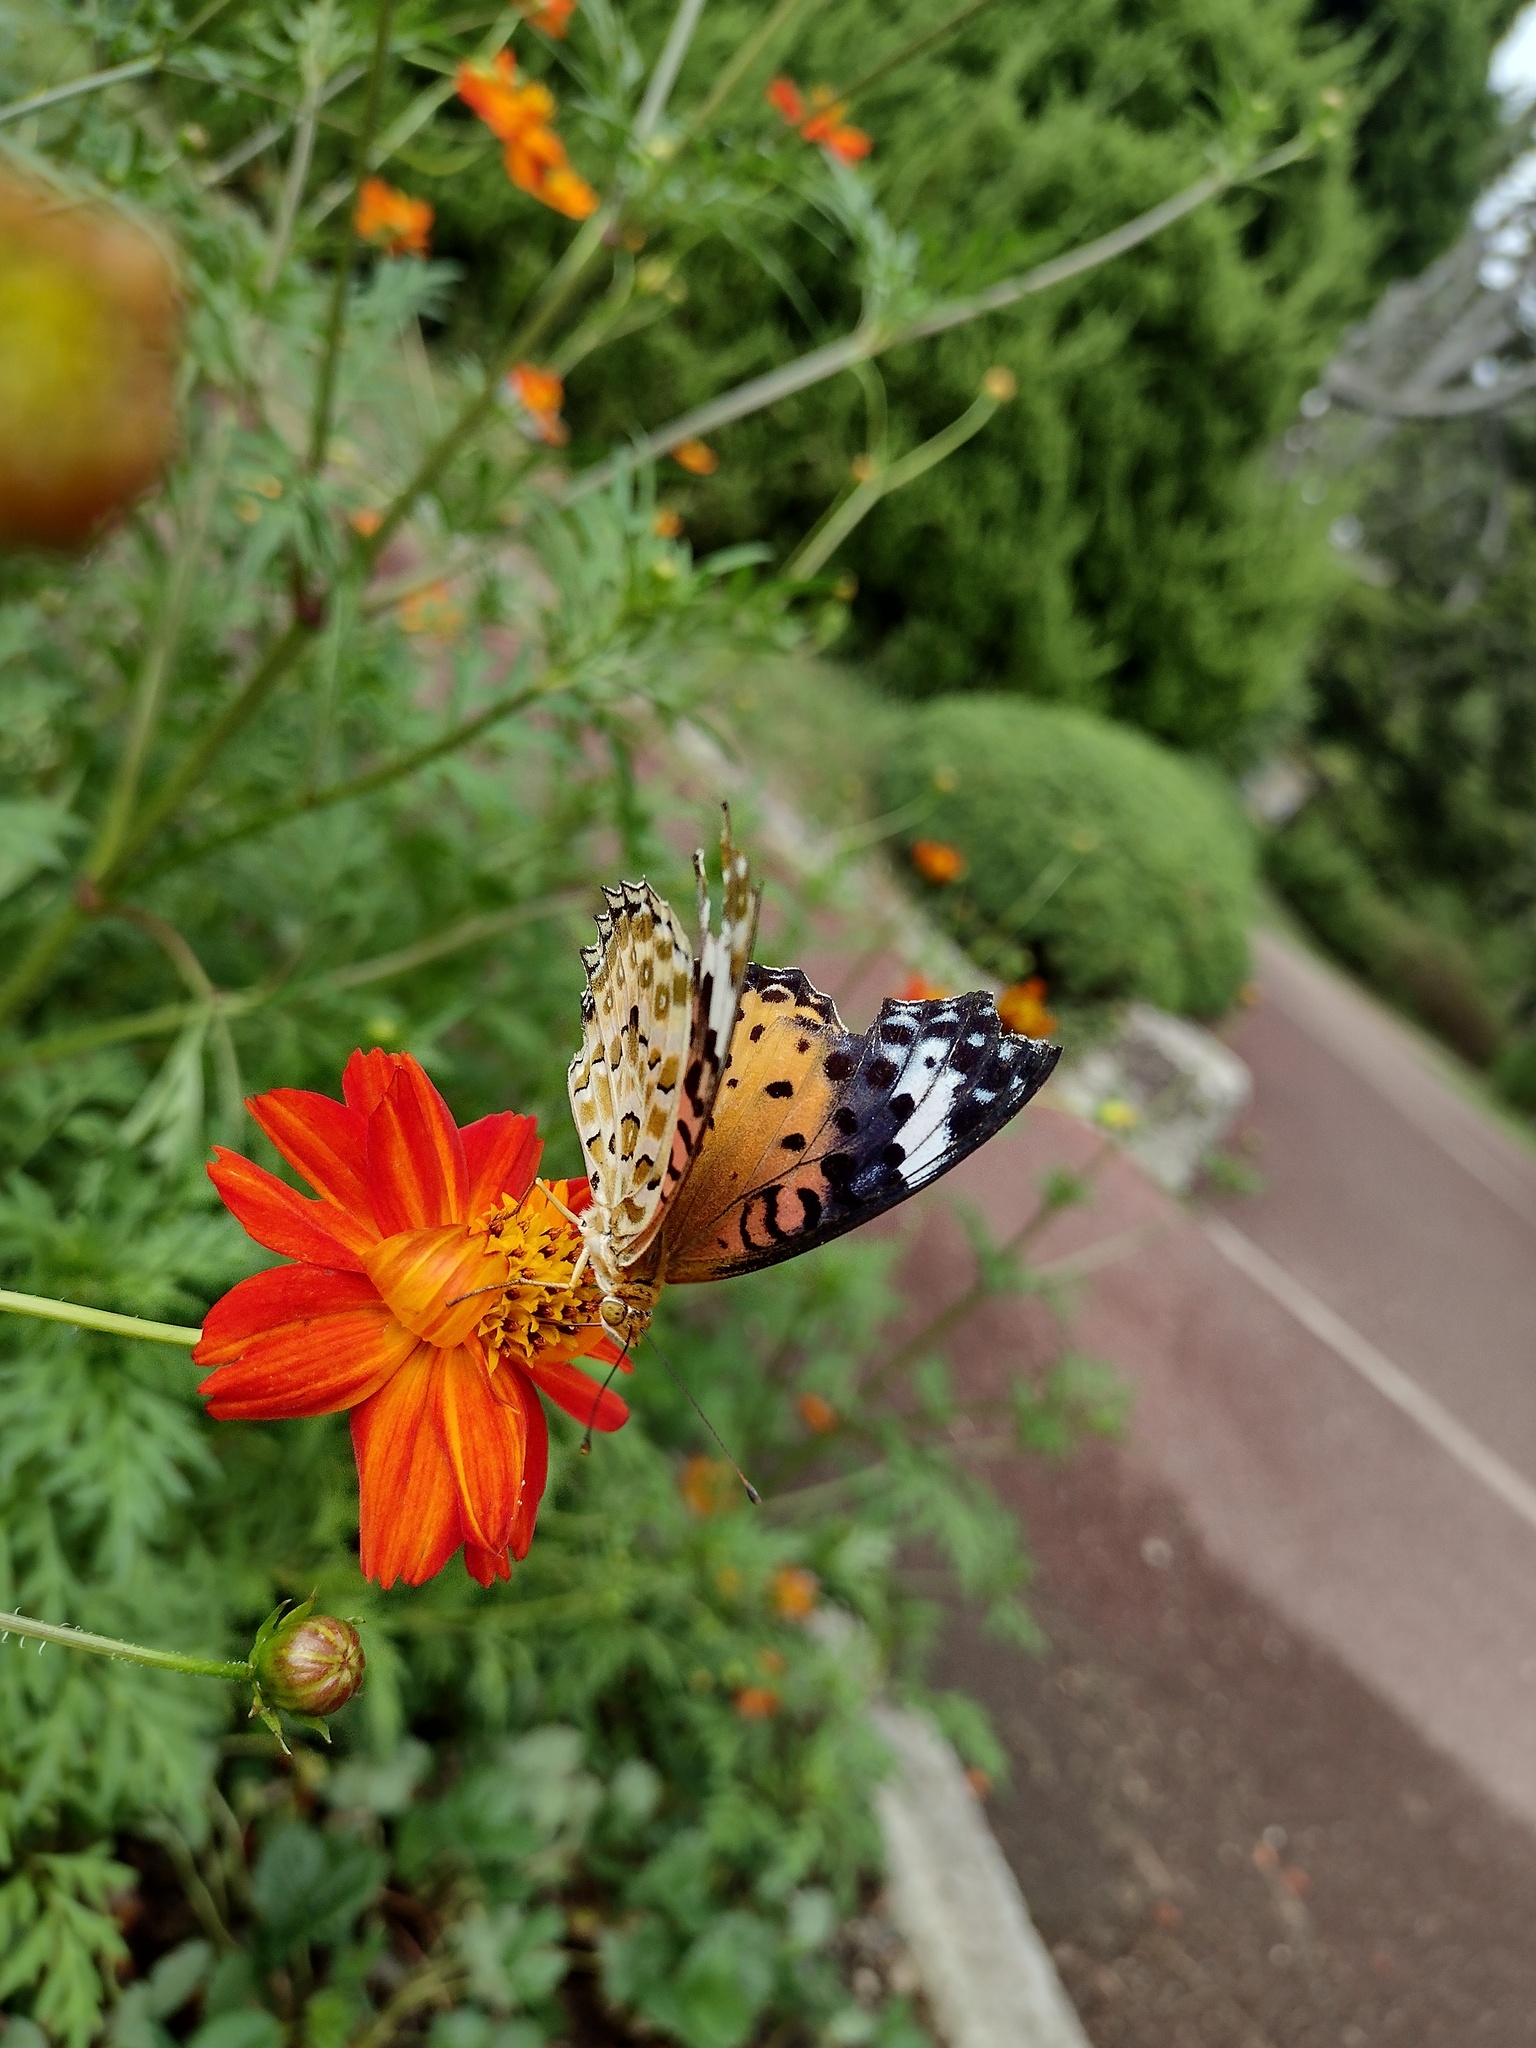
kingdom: Animalia
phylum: Arthropoda
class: Insecta
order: Lepidoptera
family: Nymphalidae
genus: Argynnis
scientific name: Argynnis hyperbius
